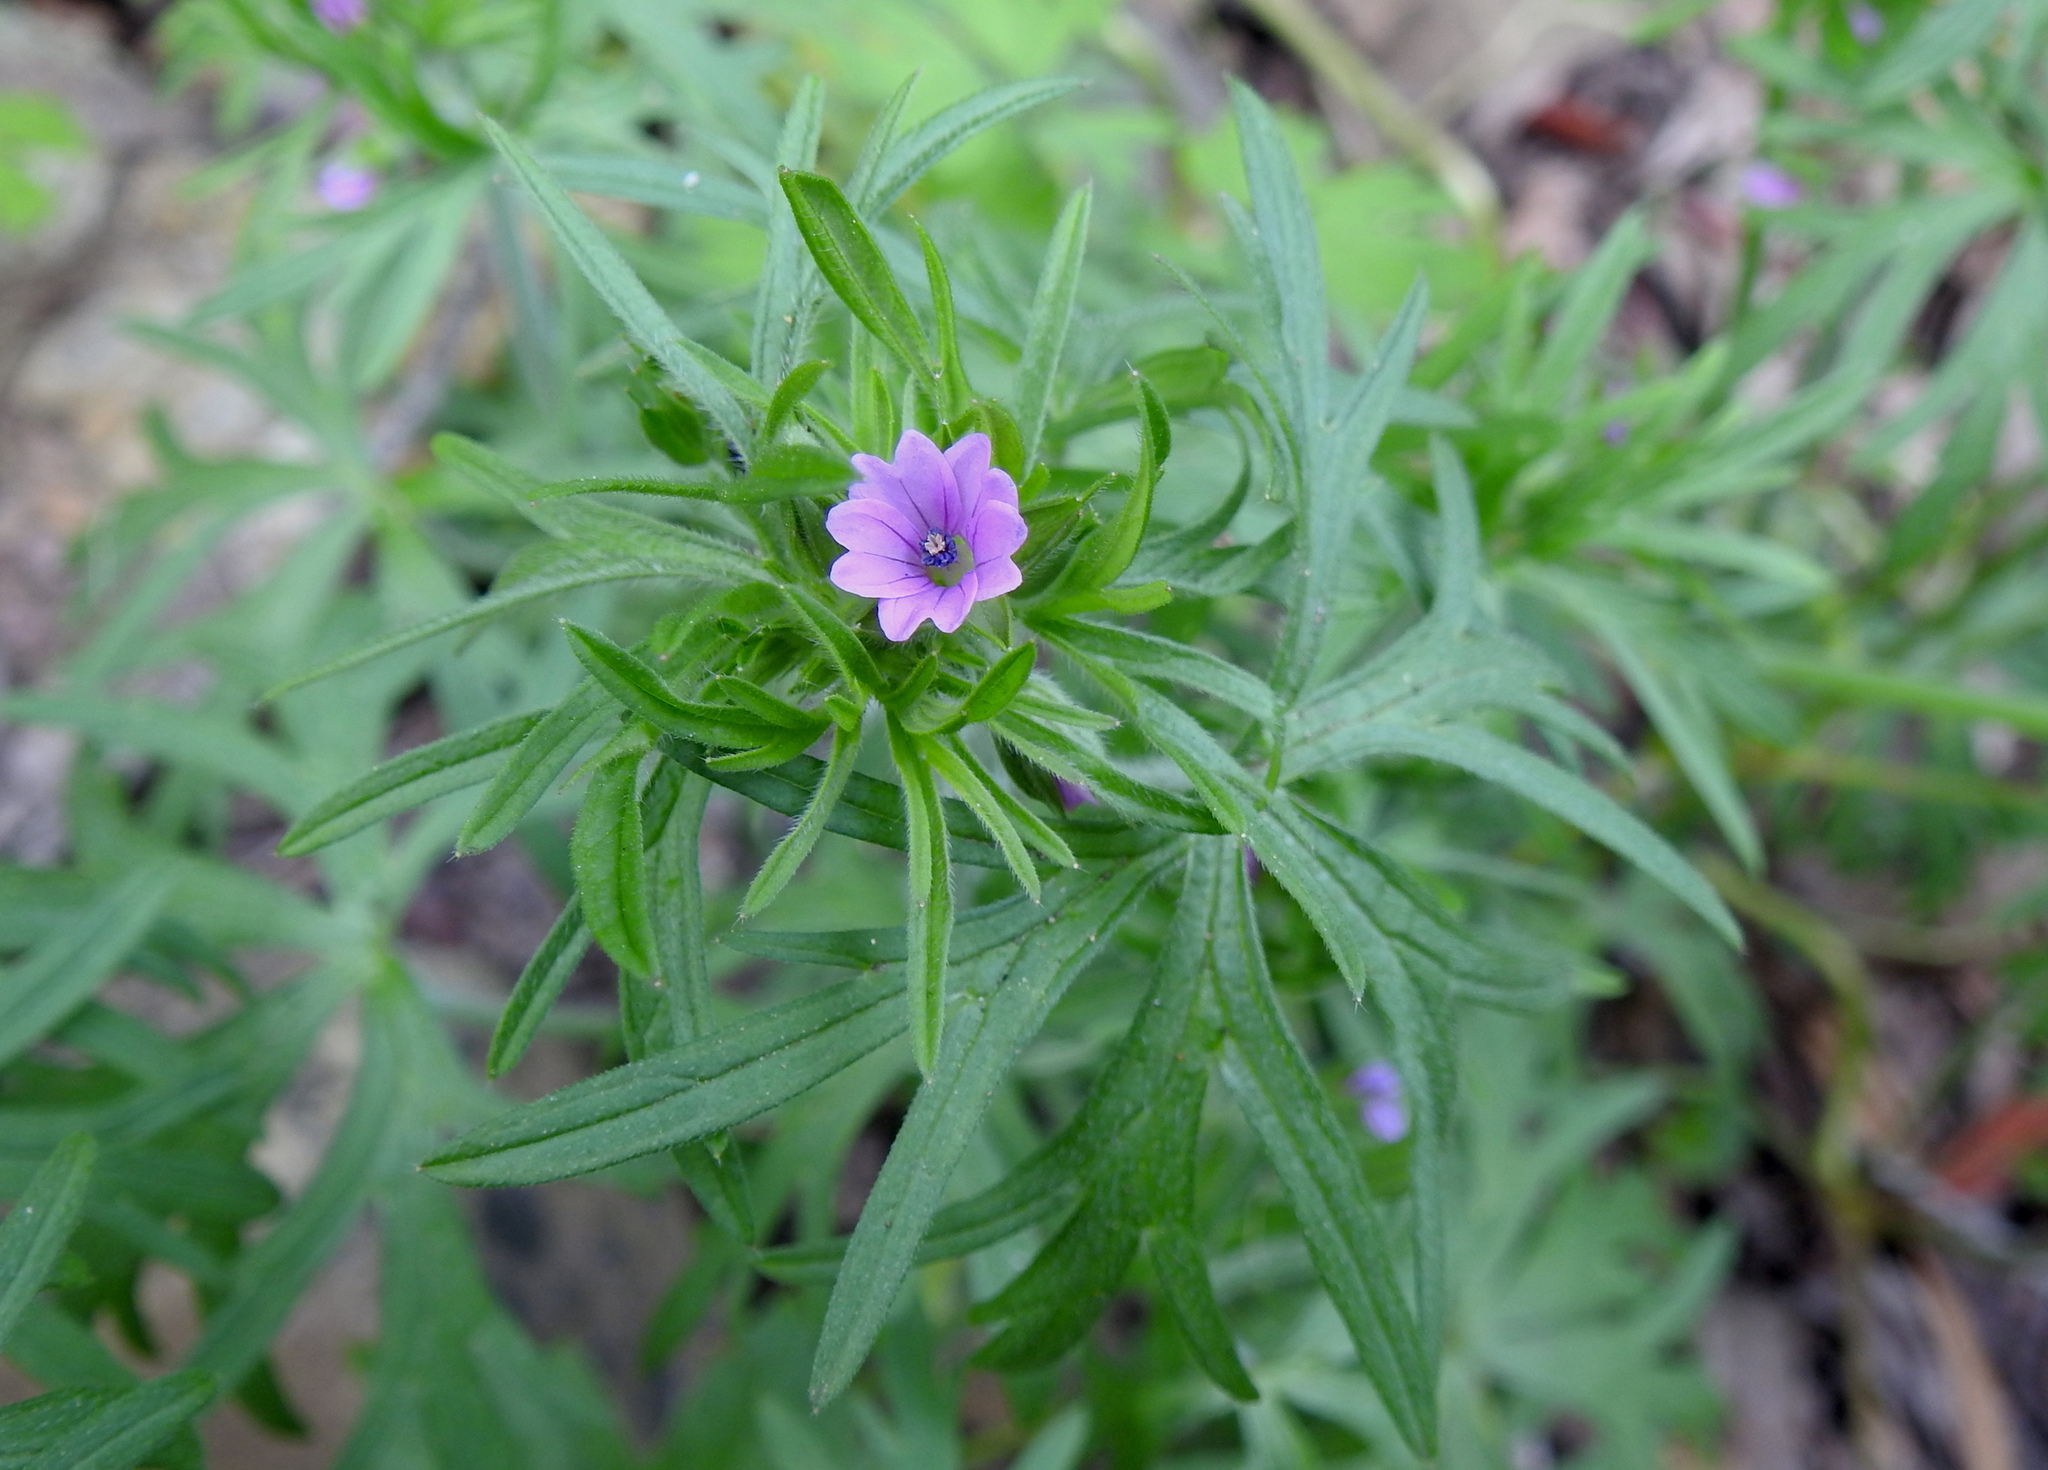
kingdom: Plantae
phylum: Tracheophyta
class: Magnoliopsida
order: Geraniales
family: Geraniaceae
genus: Geranium
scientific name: Geranium dissectum
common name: Cut-leaved crane's-bill
